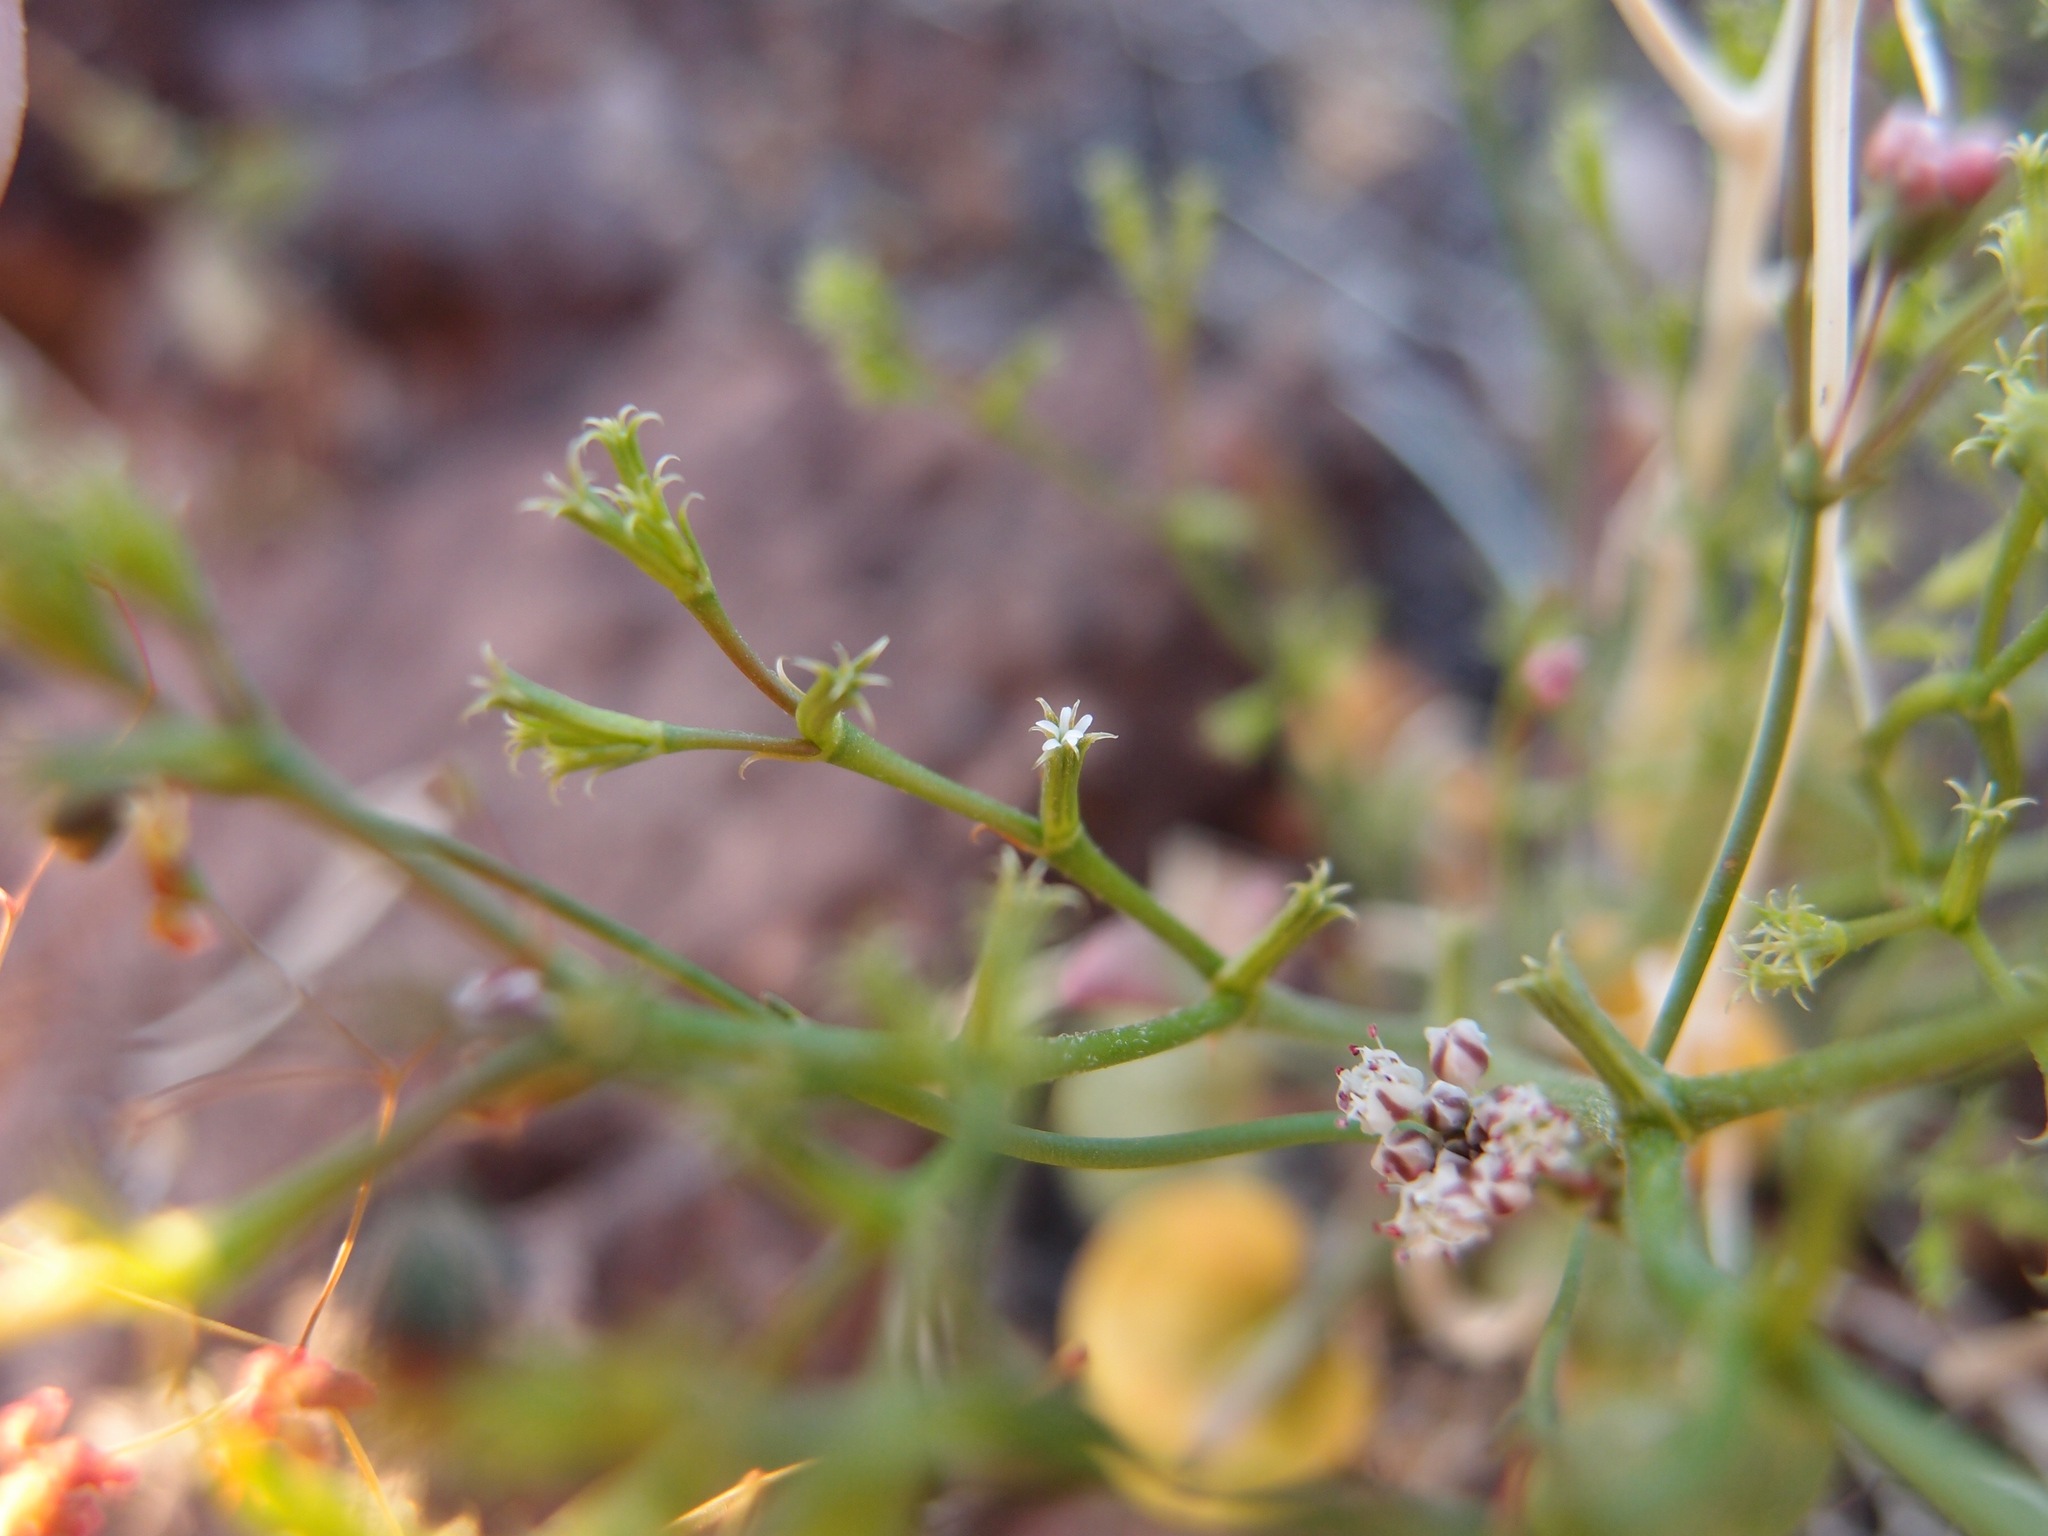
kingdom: Plantae
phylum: Tracheophyta
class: Magnoliopsida
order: Caryophyllales
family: Polygonaceae
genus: Chorizanthe
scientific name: Chorizanthe brevicornu
